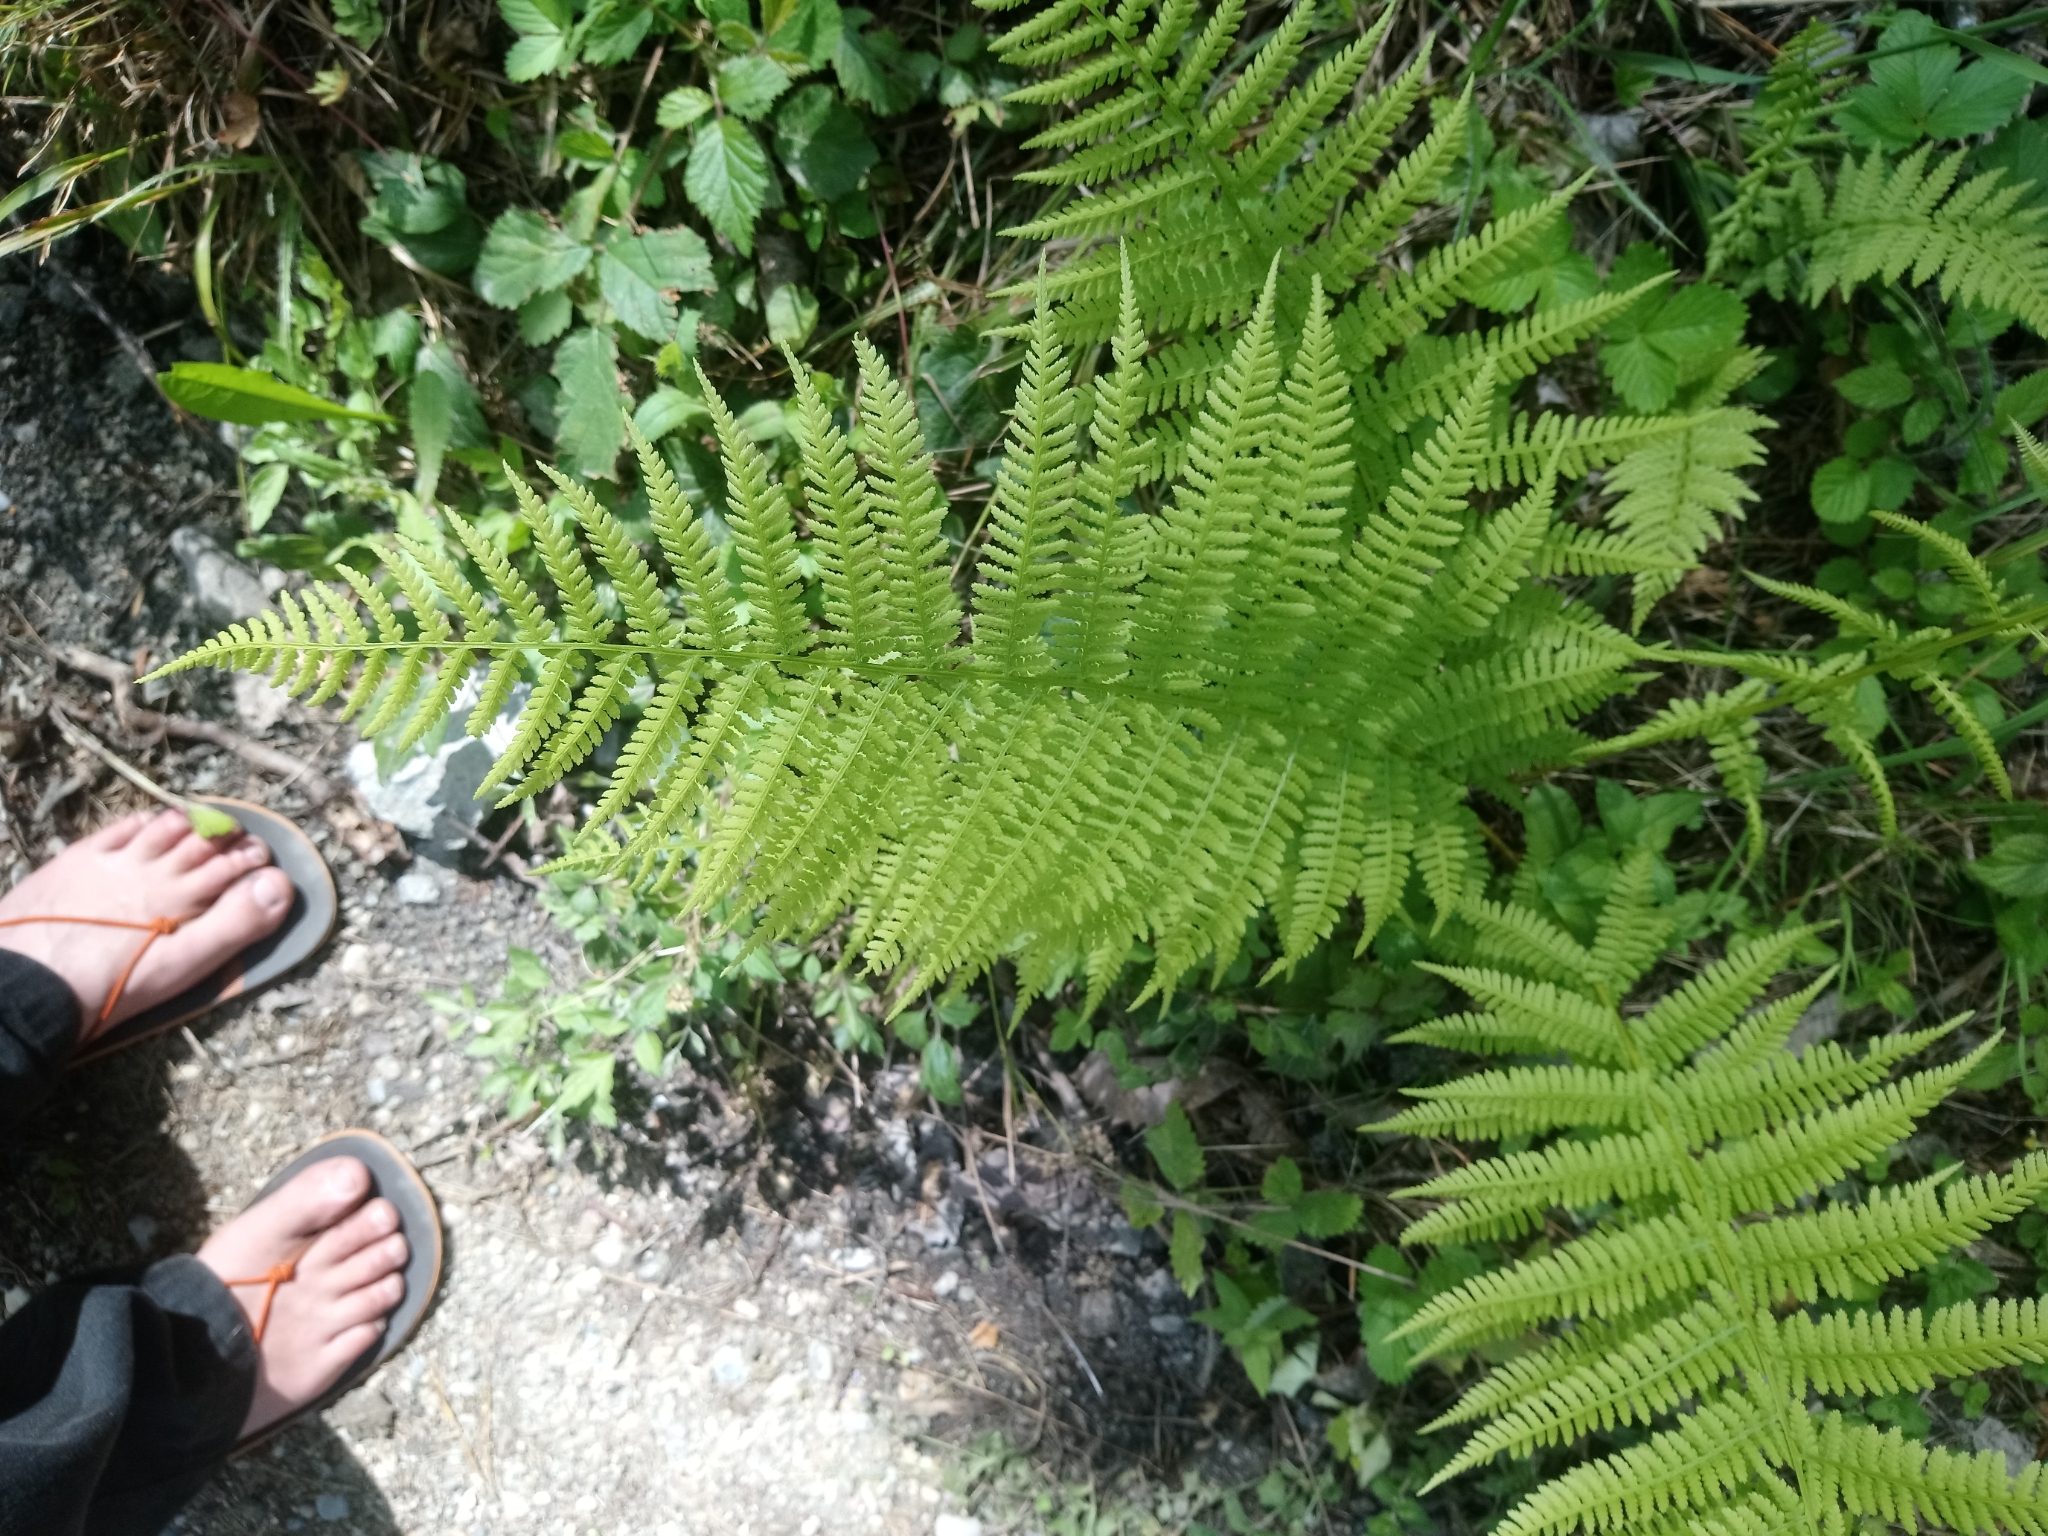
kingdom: Plantae
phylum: Tracheophyta
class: Polypodiopsida
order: Polypodiales
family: Athyriaceae
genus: Athyrium
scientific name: Athyrium filix-femina
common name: Lady fern
